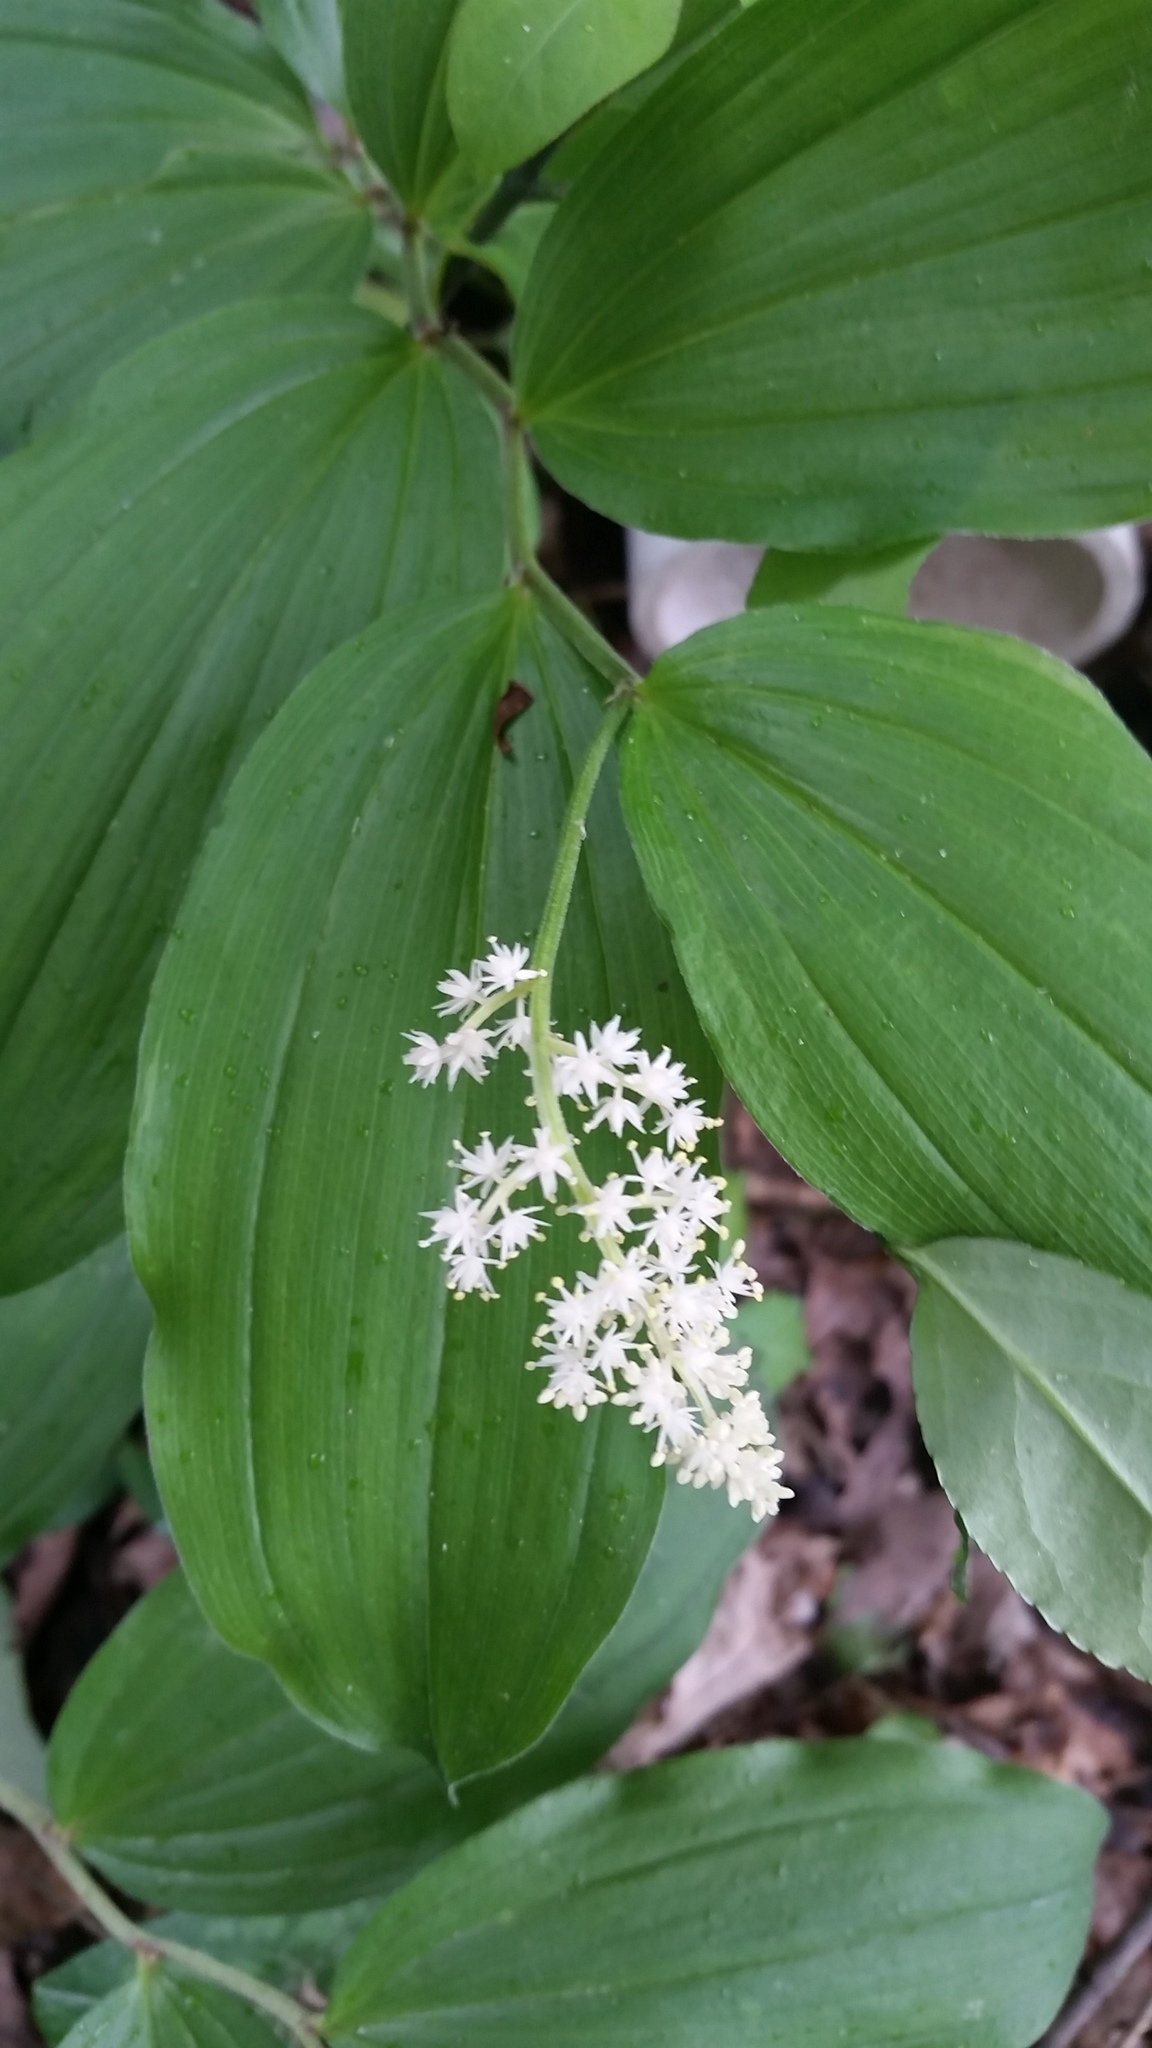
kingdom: Plantae
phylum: Tracheophyta
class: Liliopsida
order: Asparagales
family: Asparagaceae
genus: Maianthemum
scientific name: Maianthemum racemosum
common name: False spikenard
